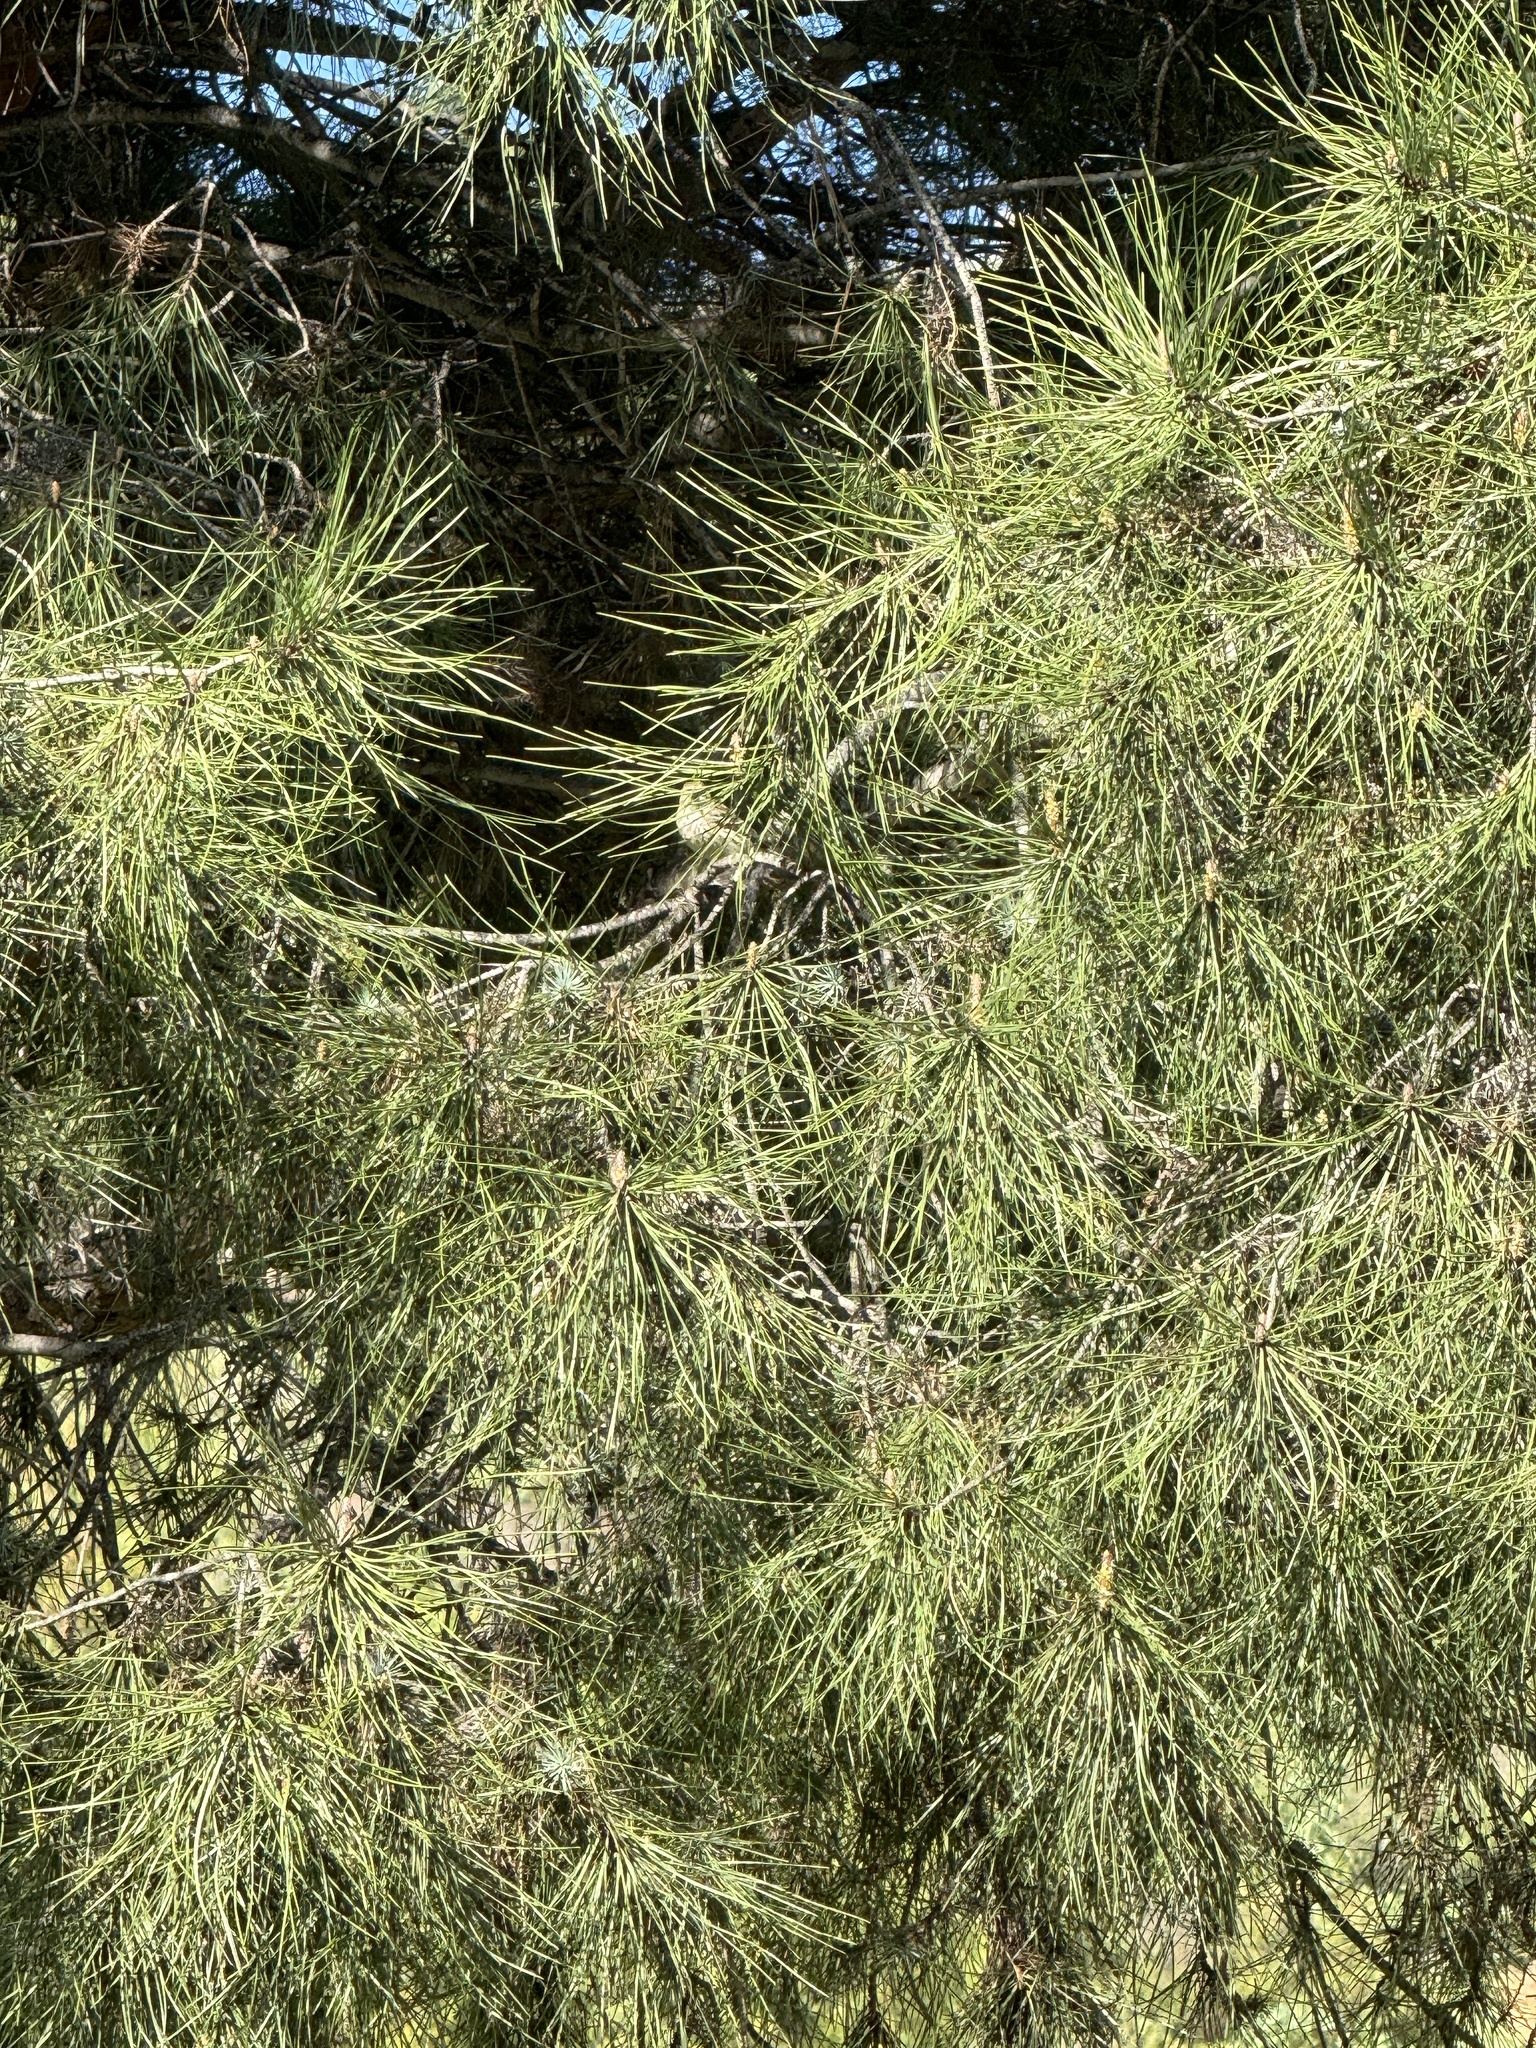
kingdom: Animalia
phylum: Chordata
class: Aves
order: Passeriformes
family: Fringillidae
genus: Spinus
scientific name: Spinus pinus
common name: Pine siskin
